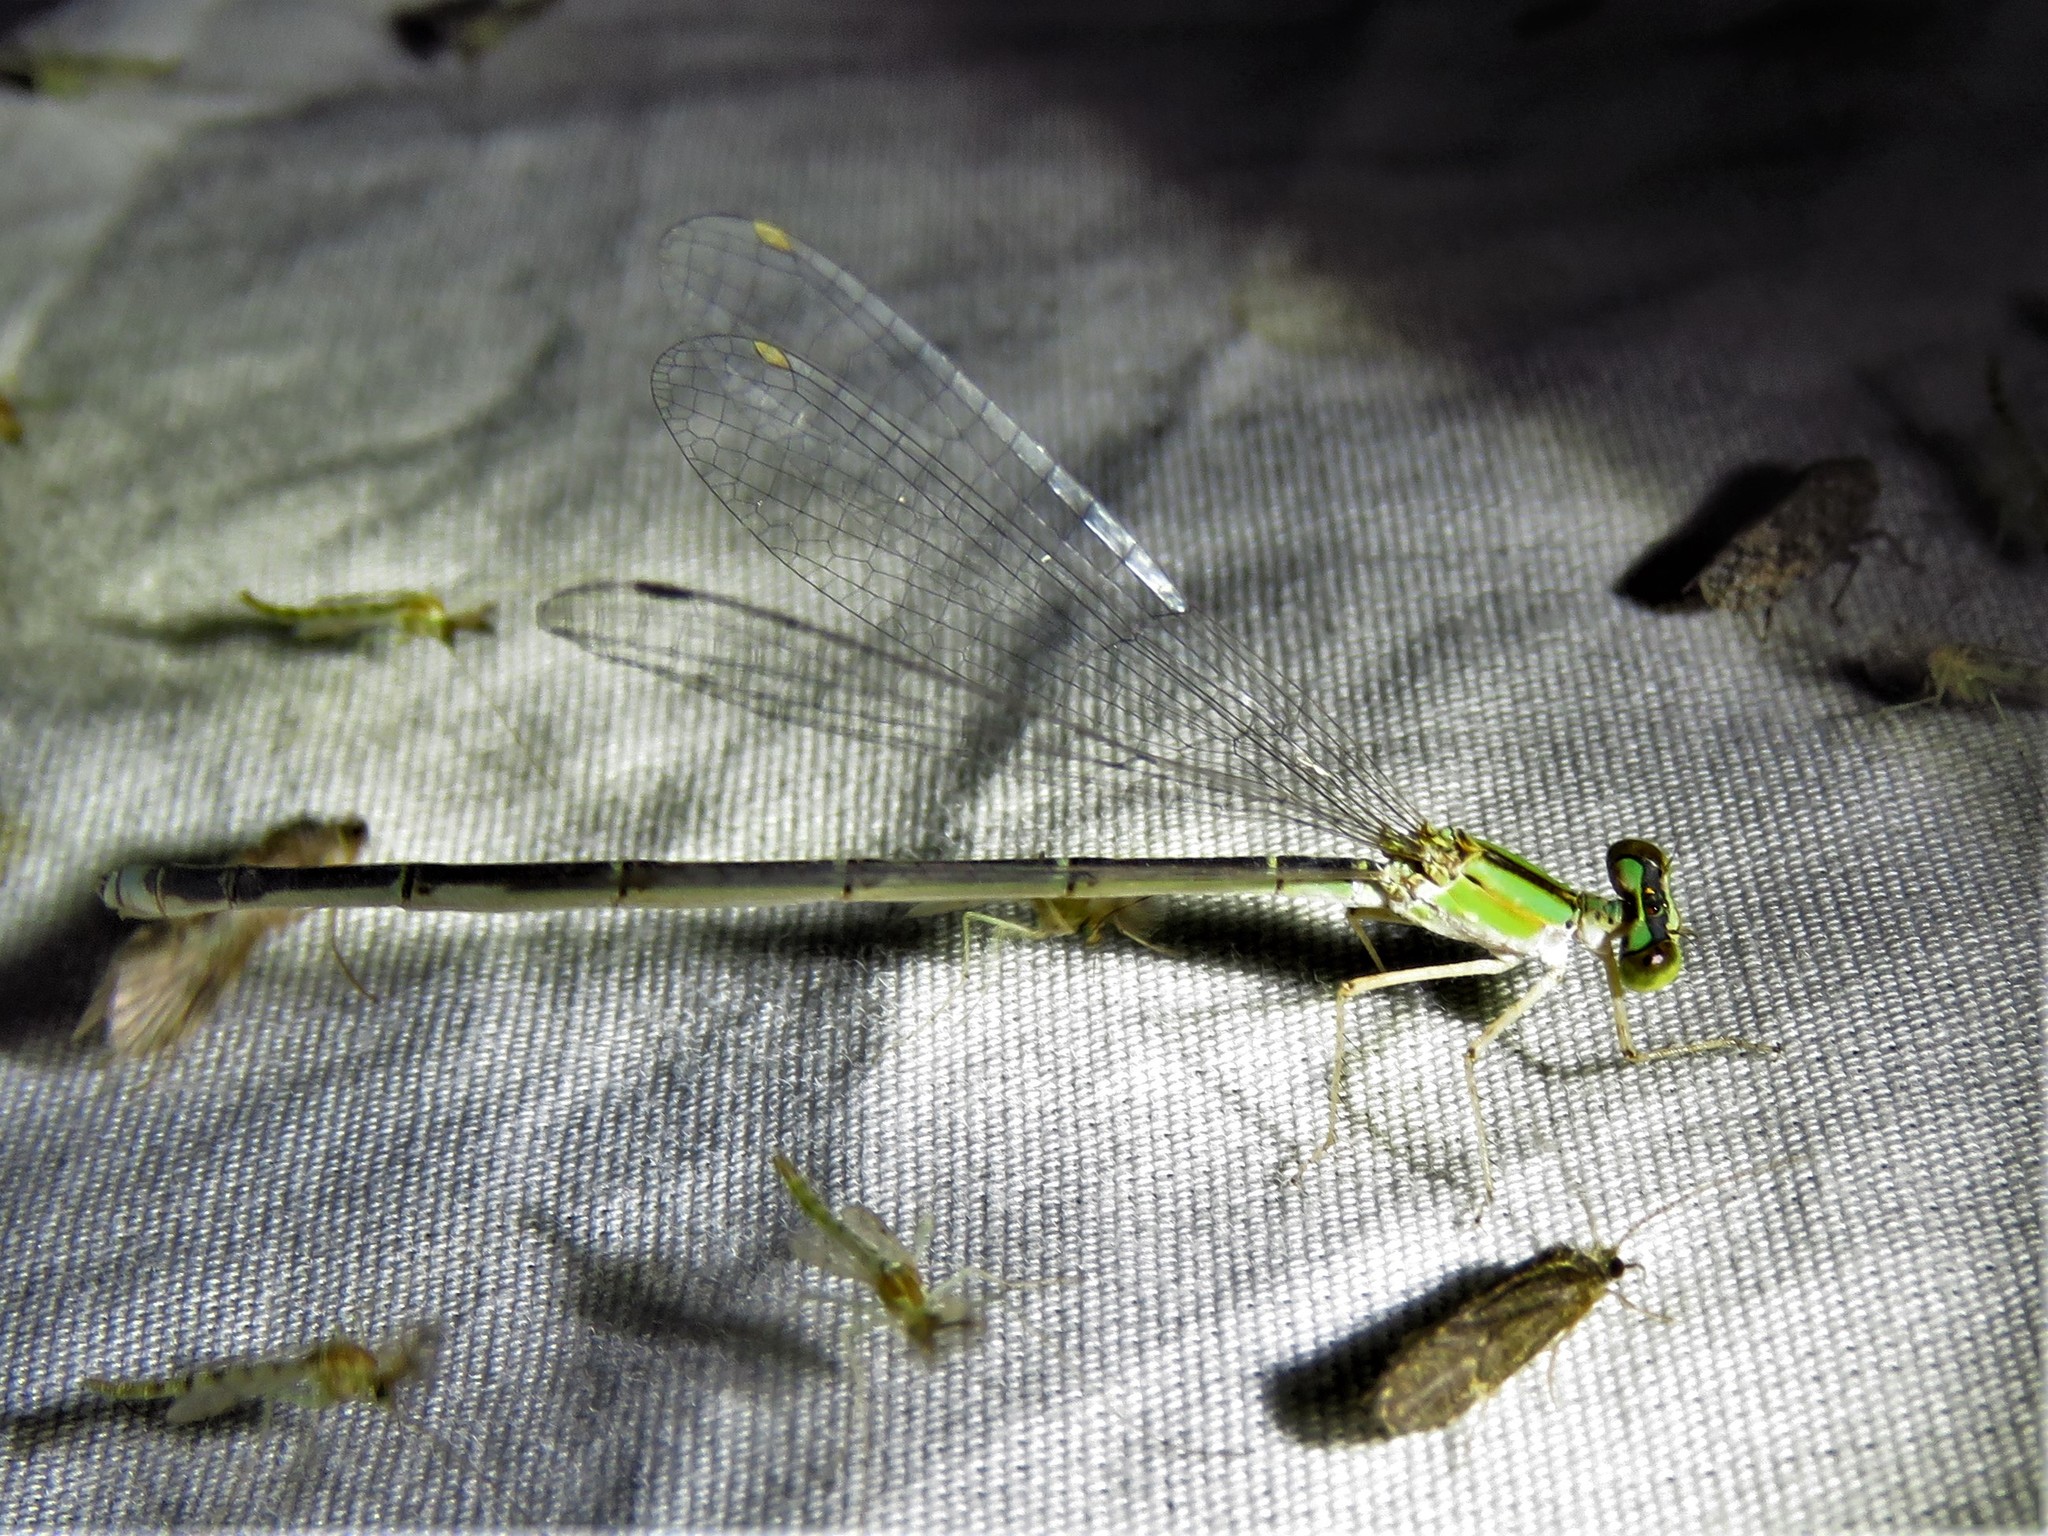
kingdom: Animalia
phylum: Arthropoda
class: Insecta
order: Odonata
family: Coenagrionidae
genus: Enallagma
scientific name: Enallagma vesperum
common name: Vesper bluet
